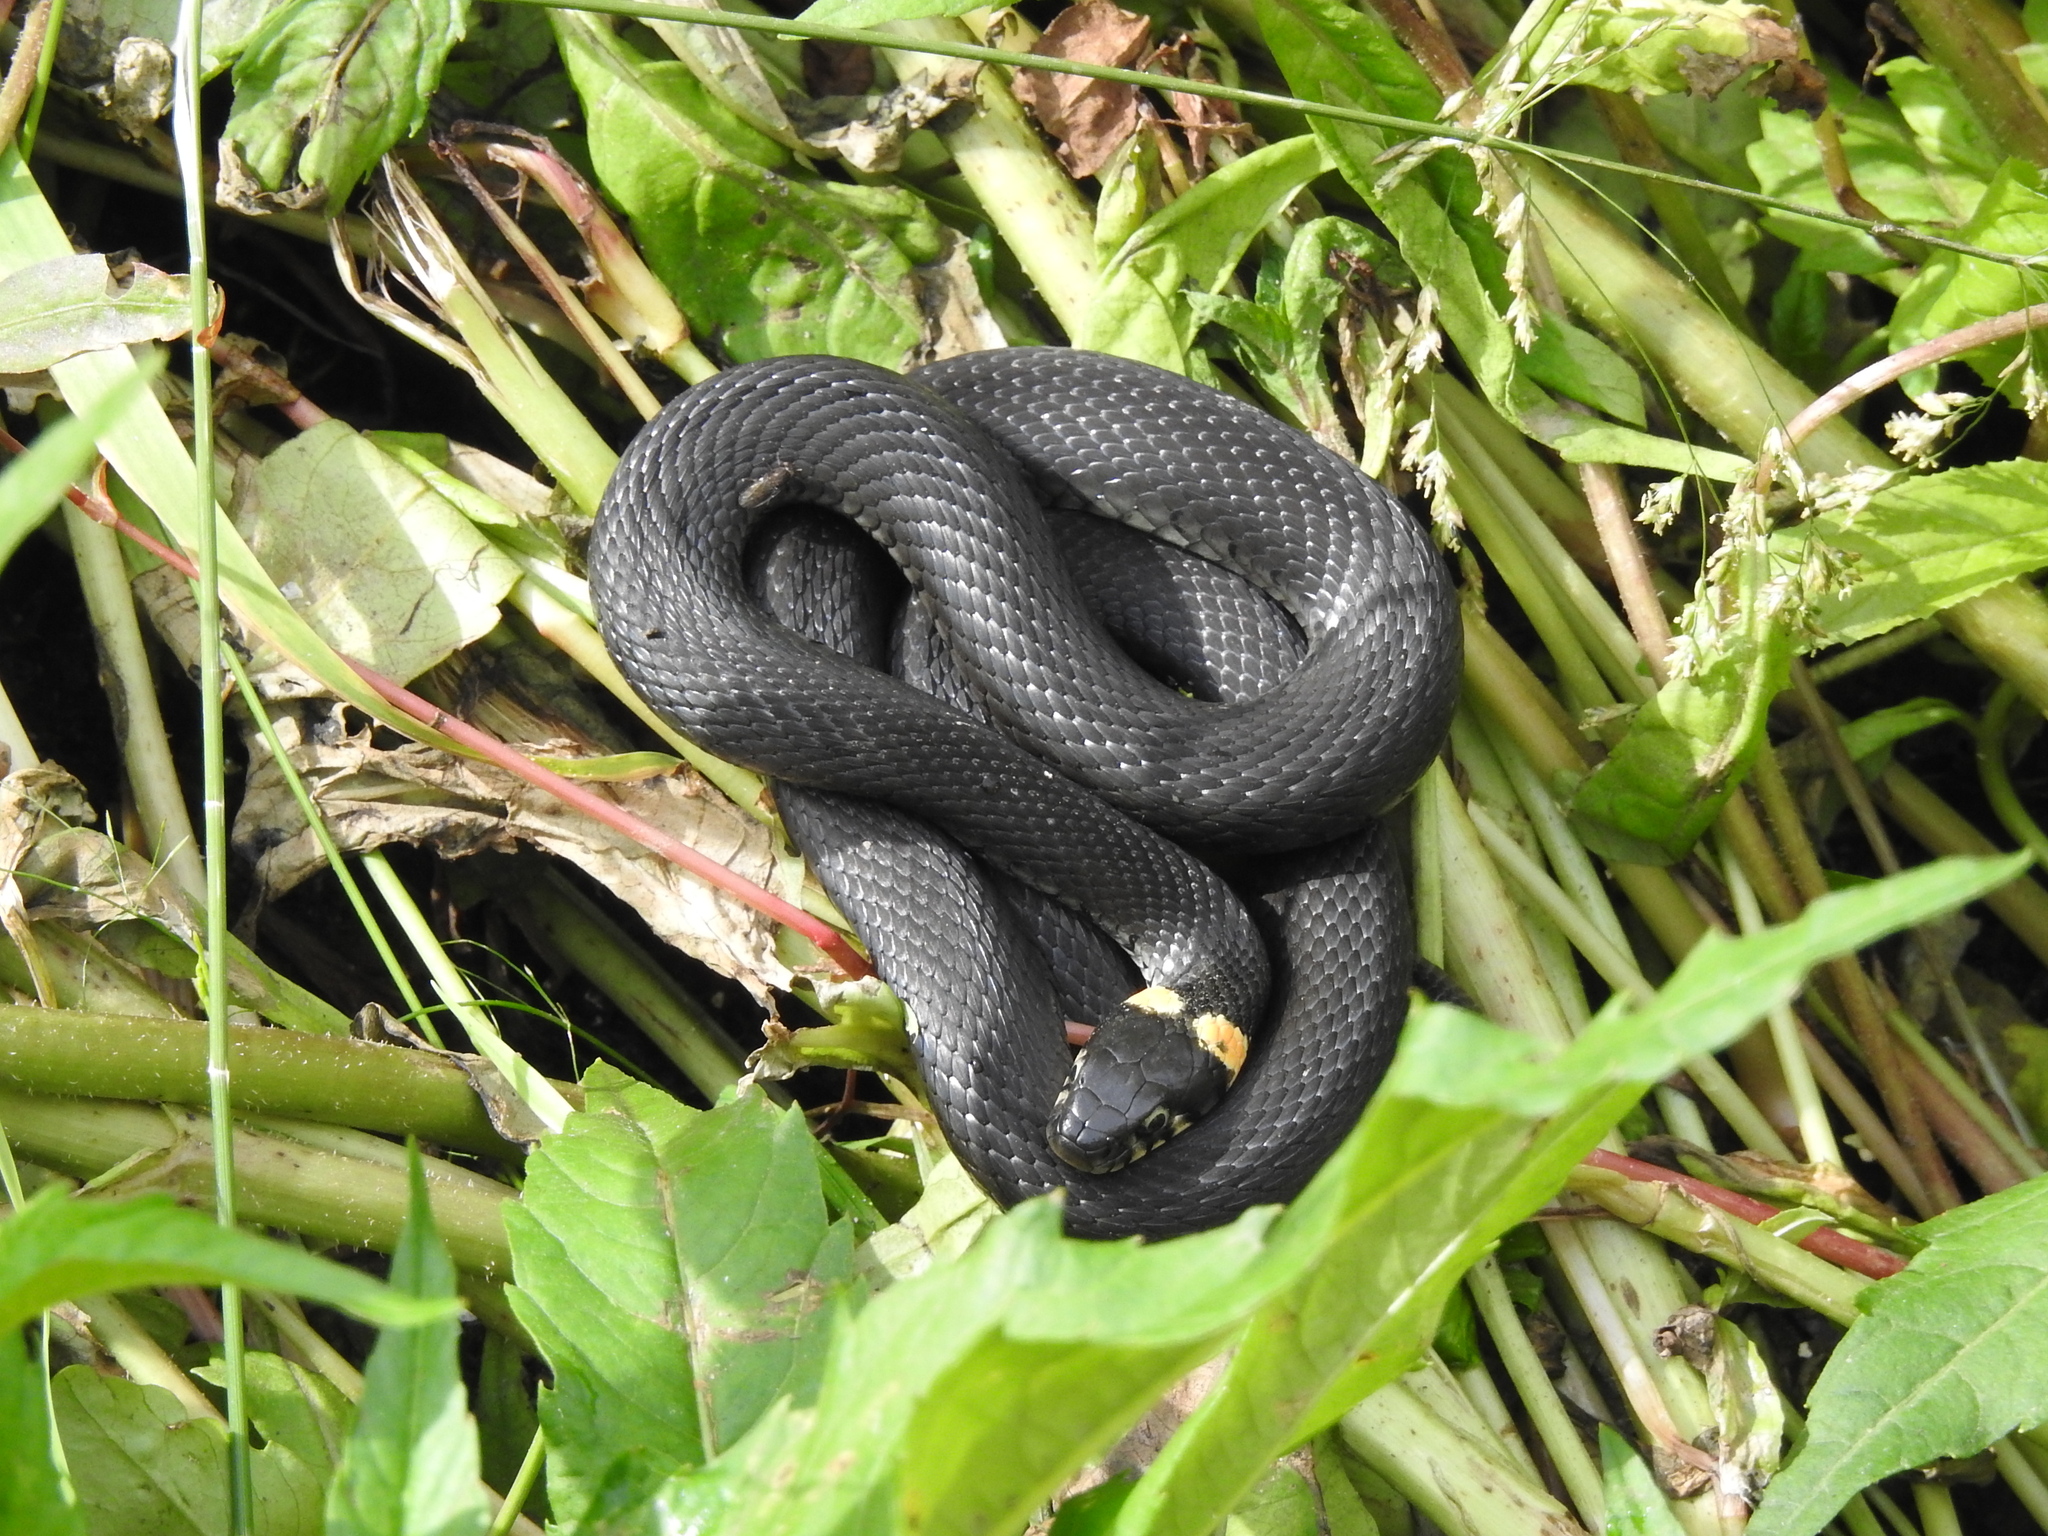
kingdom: Animalia
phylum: Chordata
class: Squamata
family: Colubridae
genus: Natrix
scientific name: Natrix natrix
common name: Grass snake
